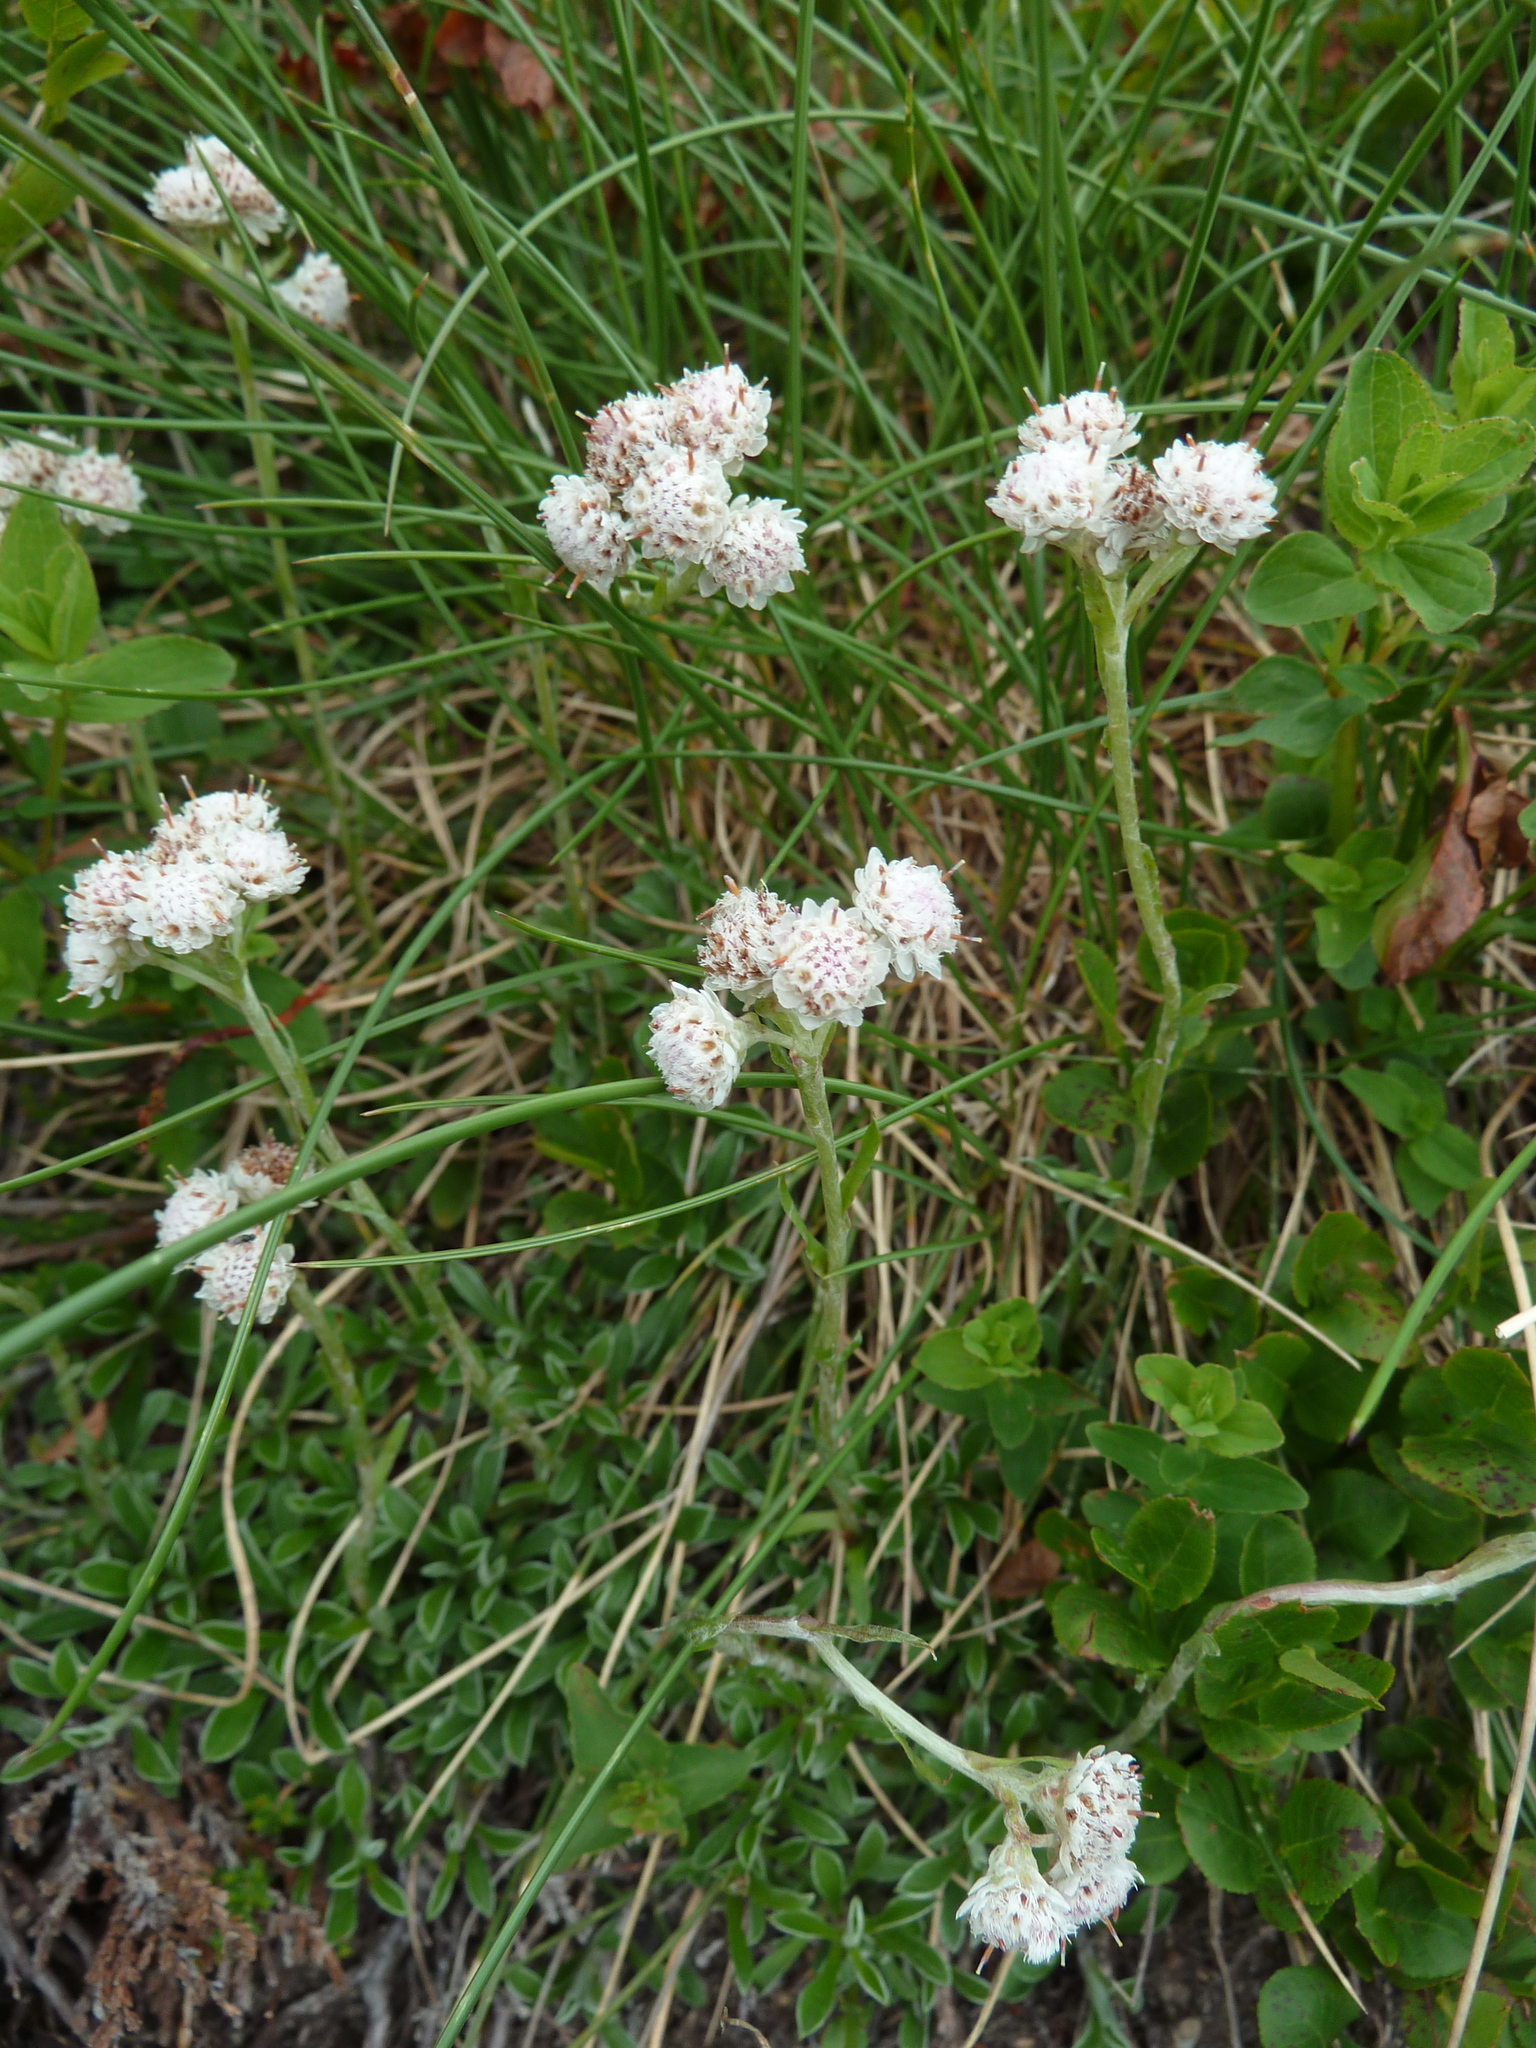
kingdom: Plantae
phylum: Tracheophyta
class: Magnoliopsida
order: Asterales
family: Asteraceae
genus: Antennaria
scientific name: Antennaria dioica
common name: Mountain everlasting
